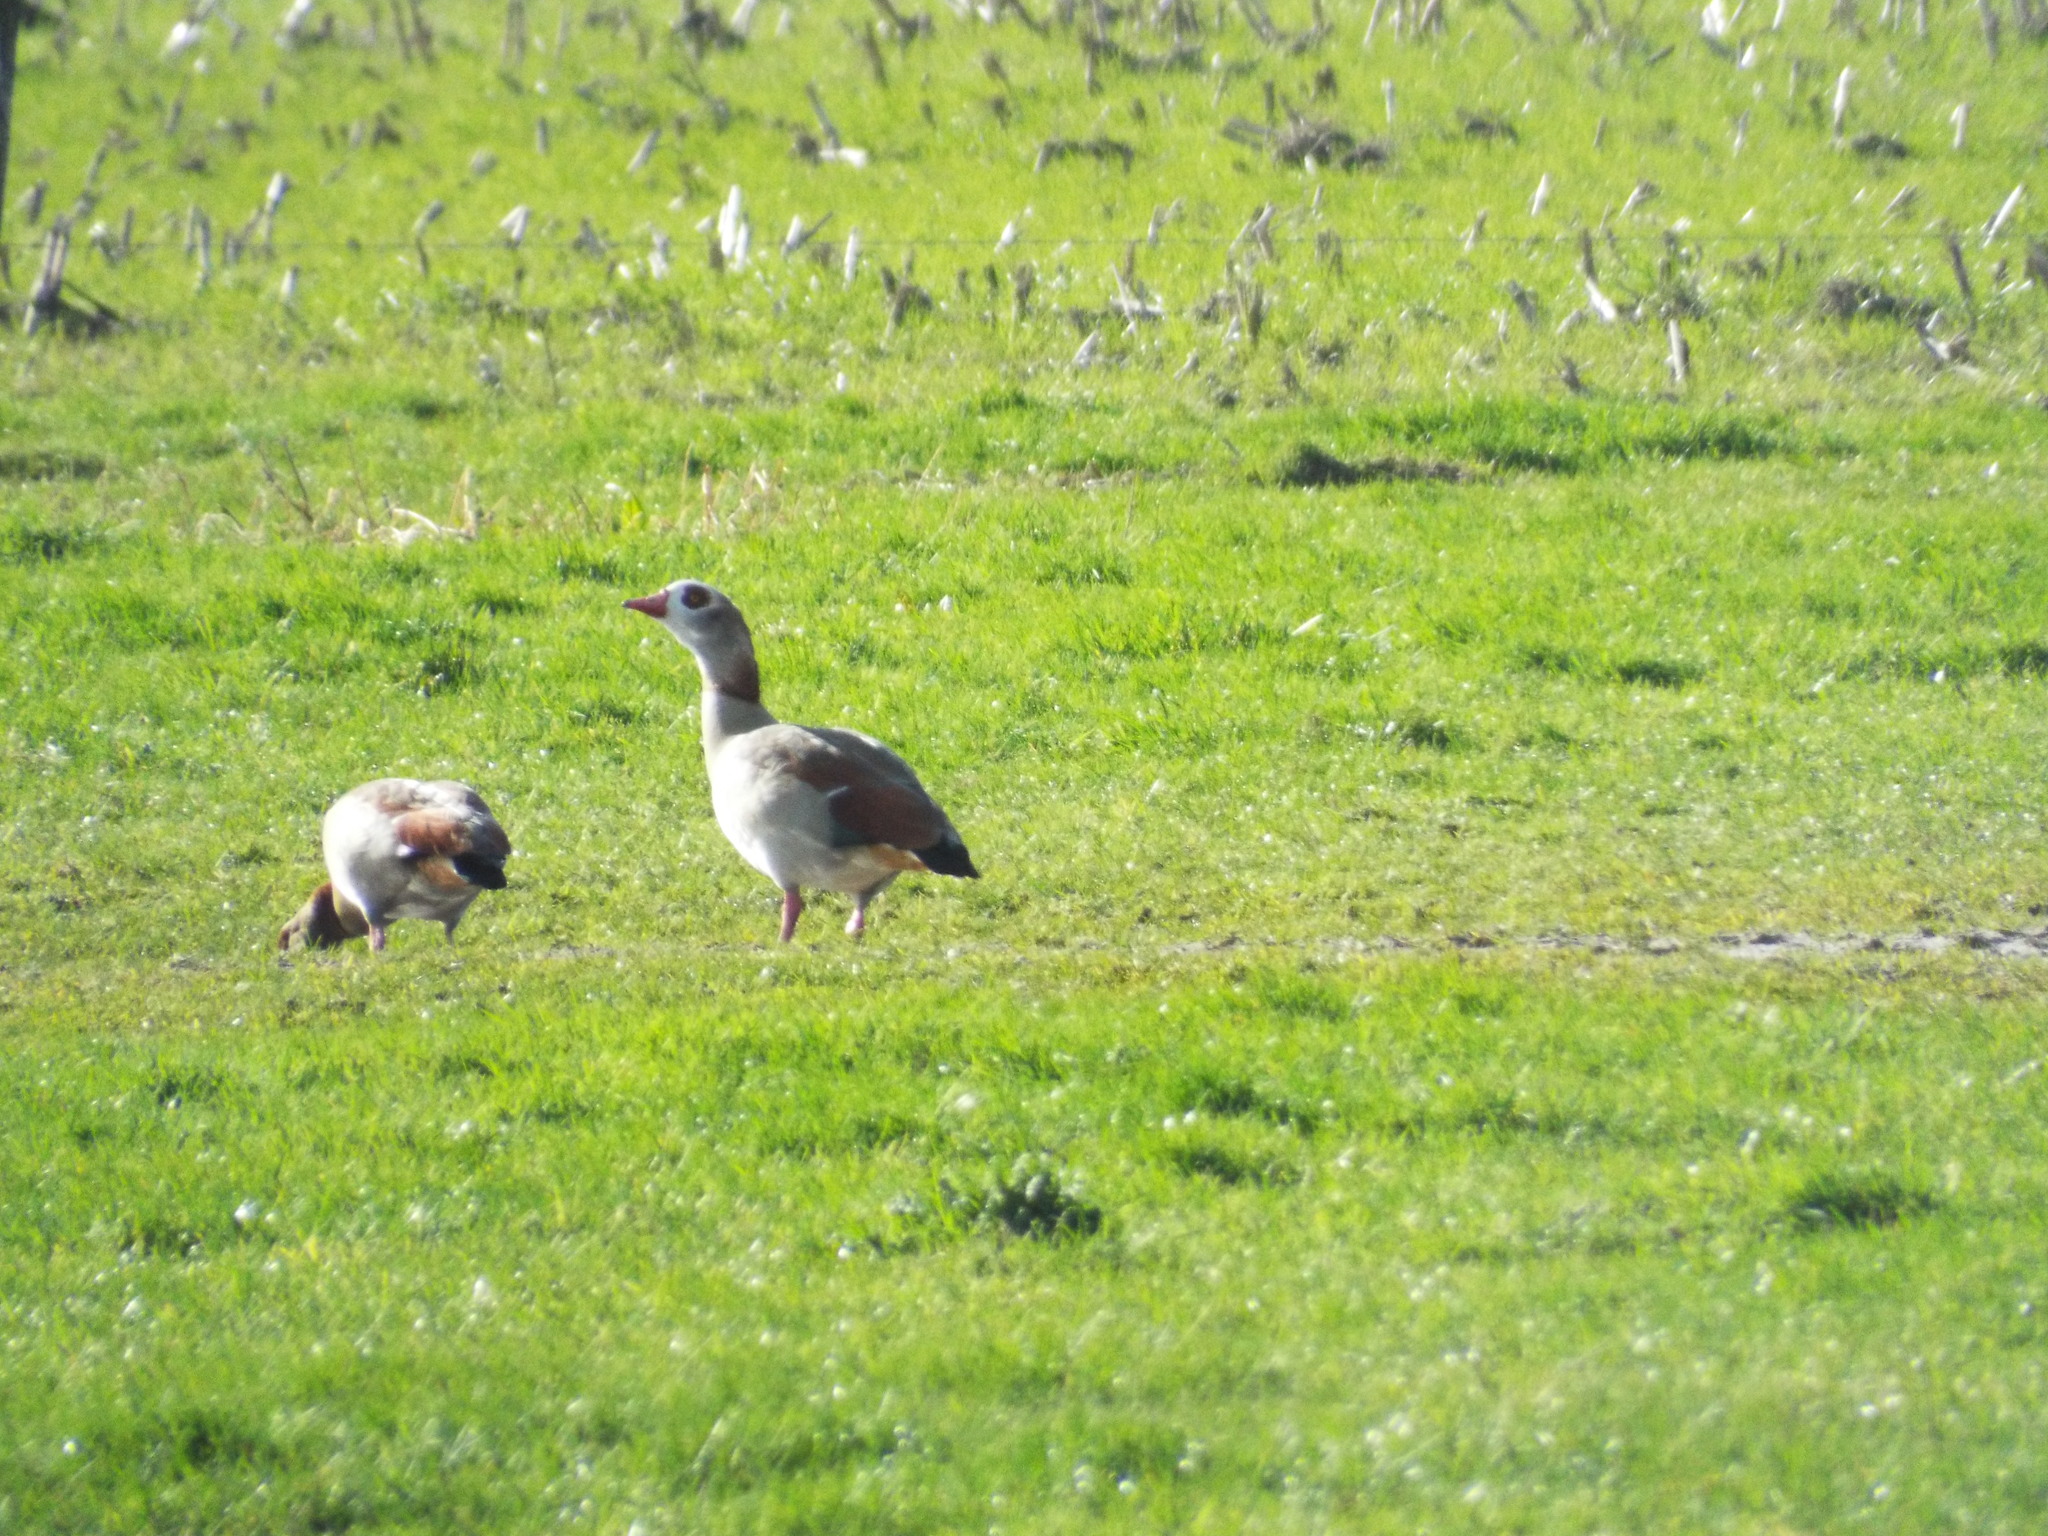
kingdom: Animalia
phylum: Chordata
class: Aves
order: Anseriformes
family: Anatidae
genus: Alopochen
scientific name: Alopochen aegyptiaca
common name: Egyptian goose
